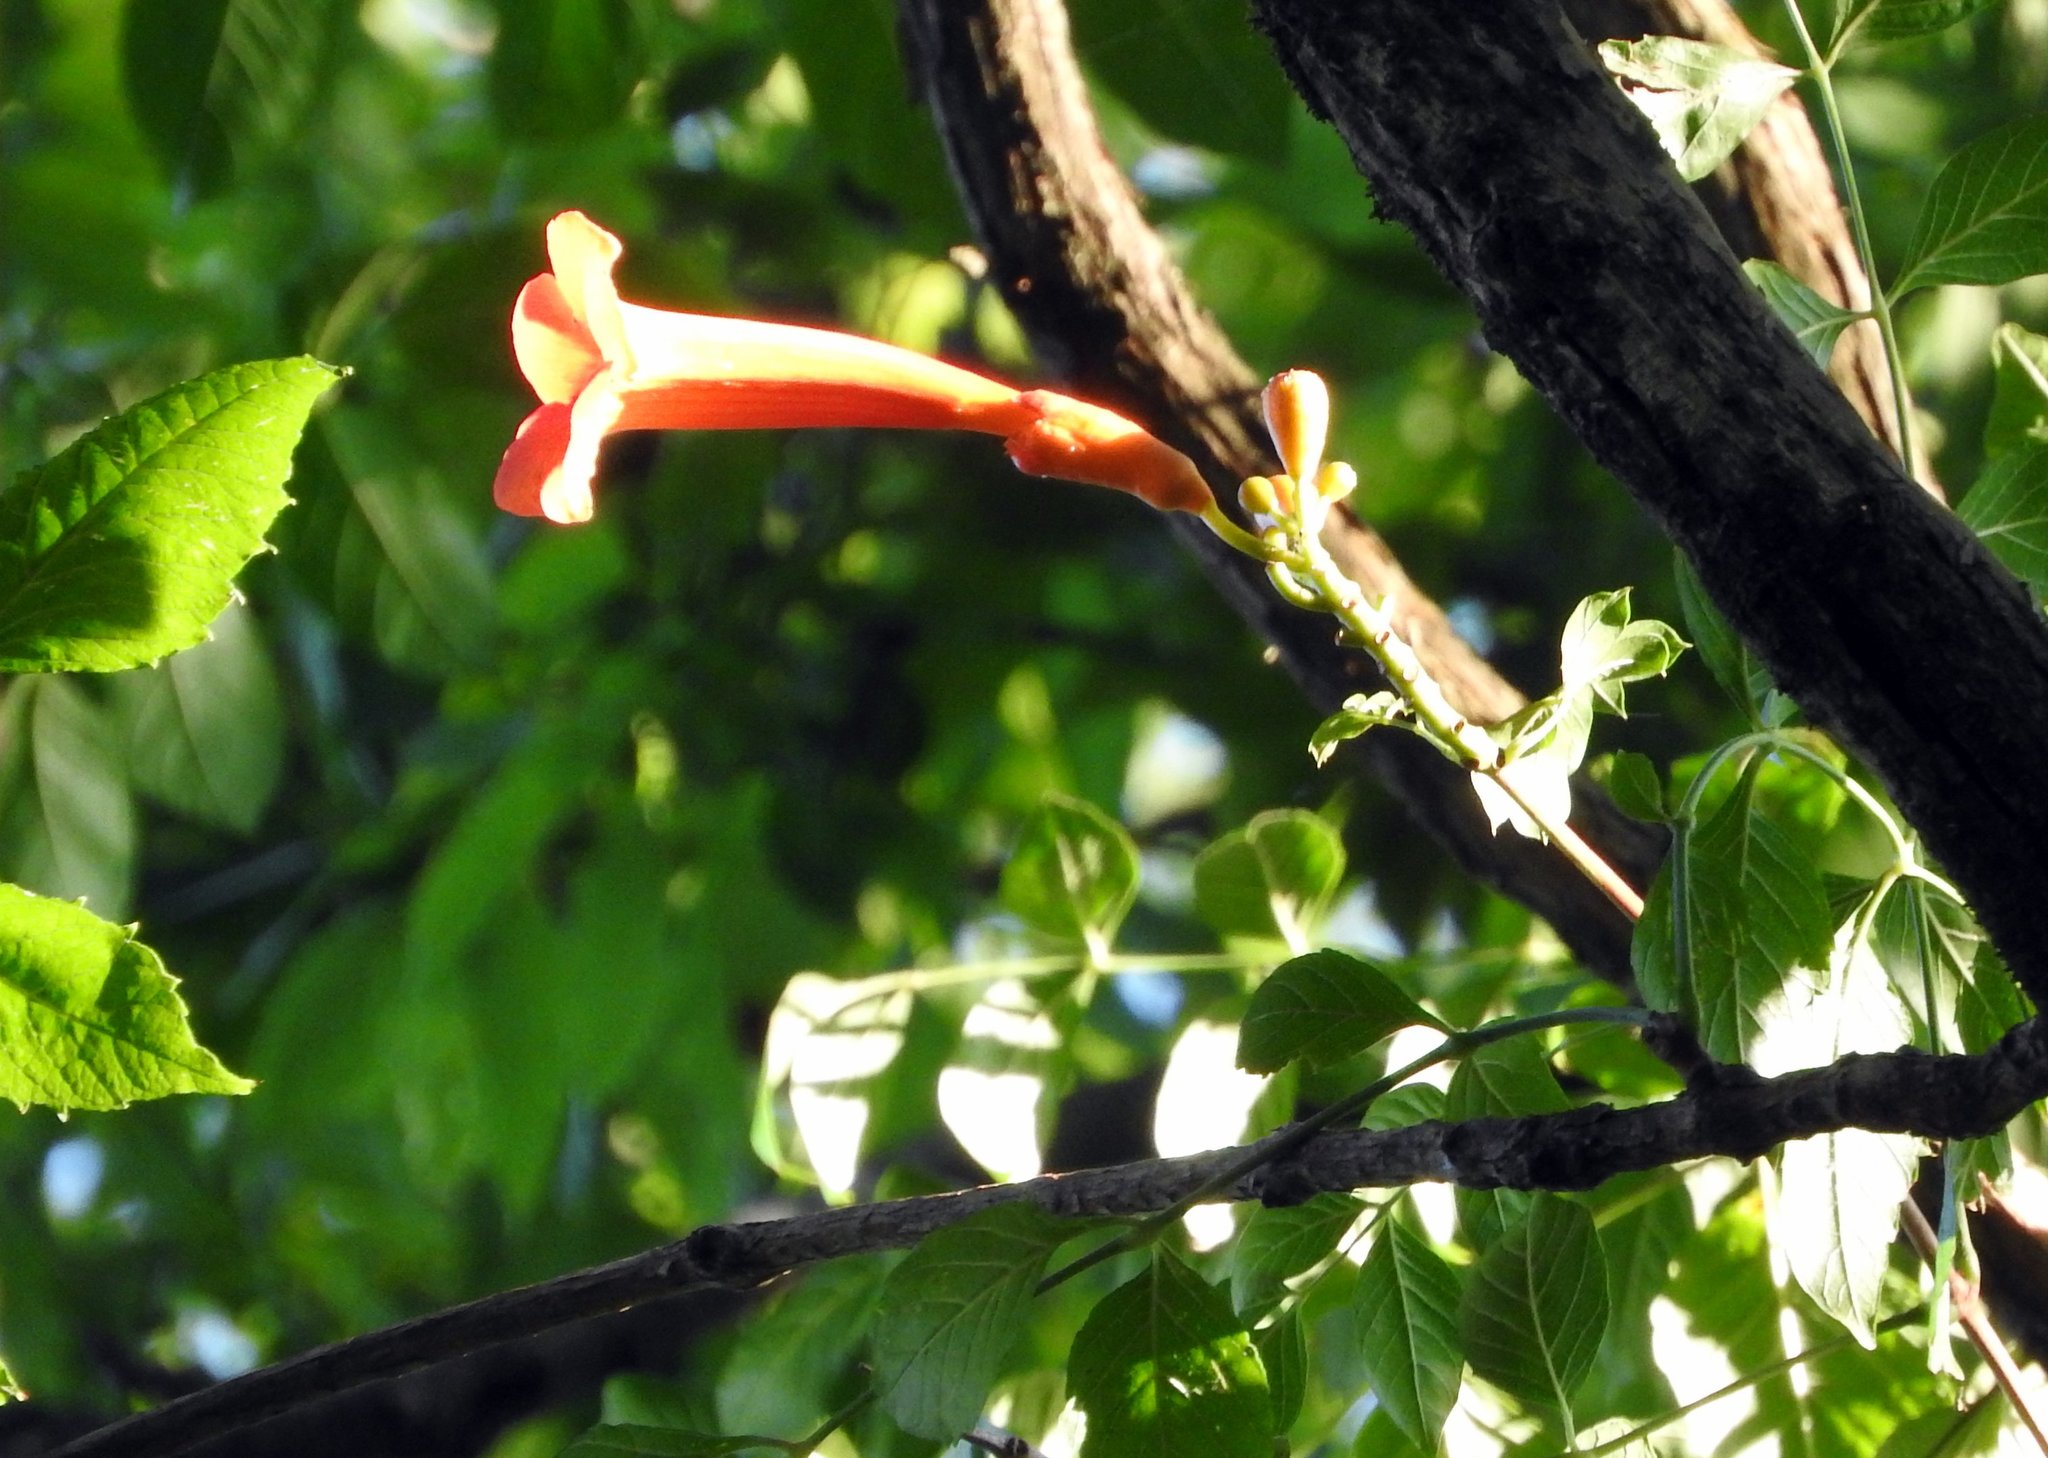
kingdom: Plantae
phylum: Tracheophyta
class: Magnoliopsida
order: Lamiales
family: Bignoniaceae
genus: Campsis
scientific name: Campsis radicans
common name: Trumpet-creeper
